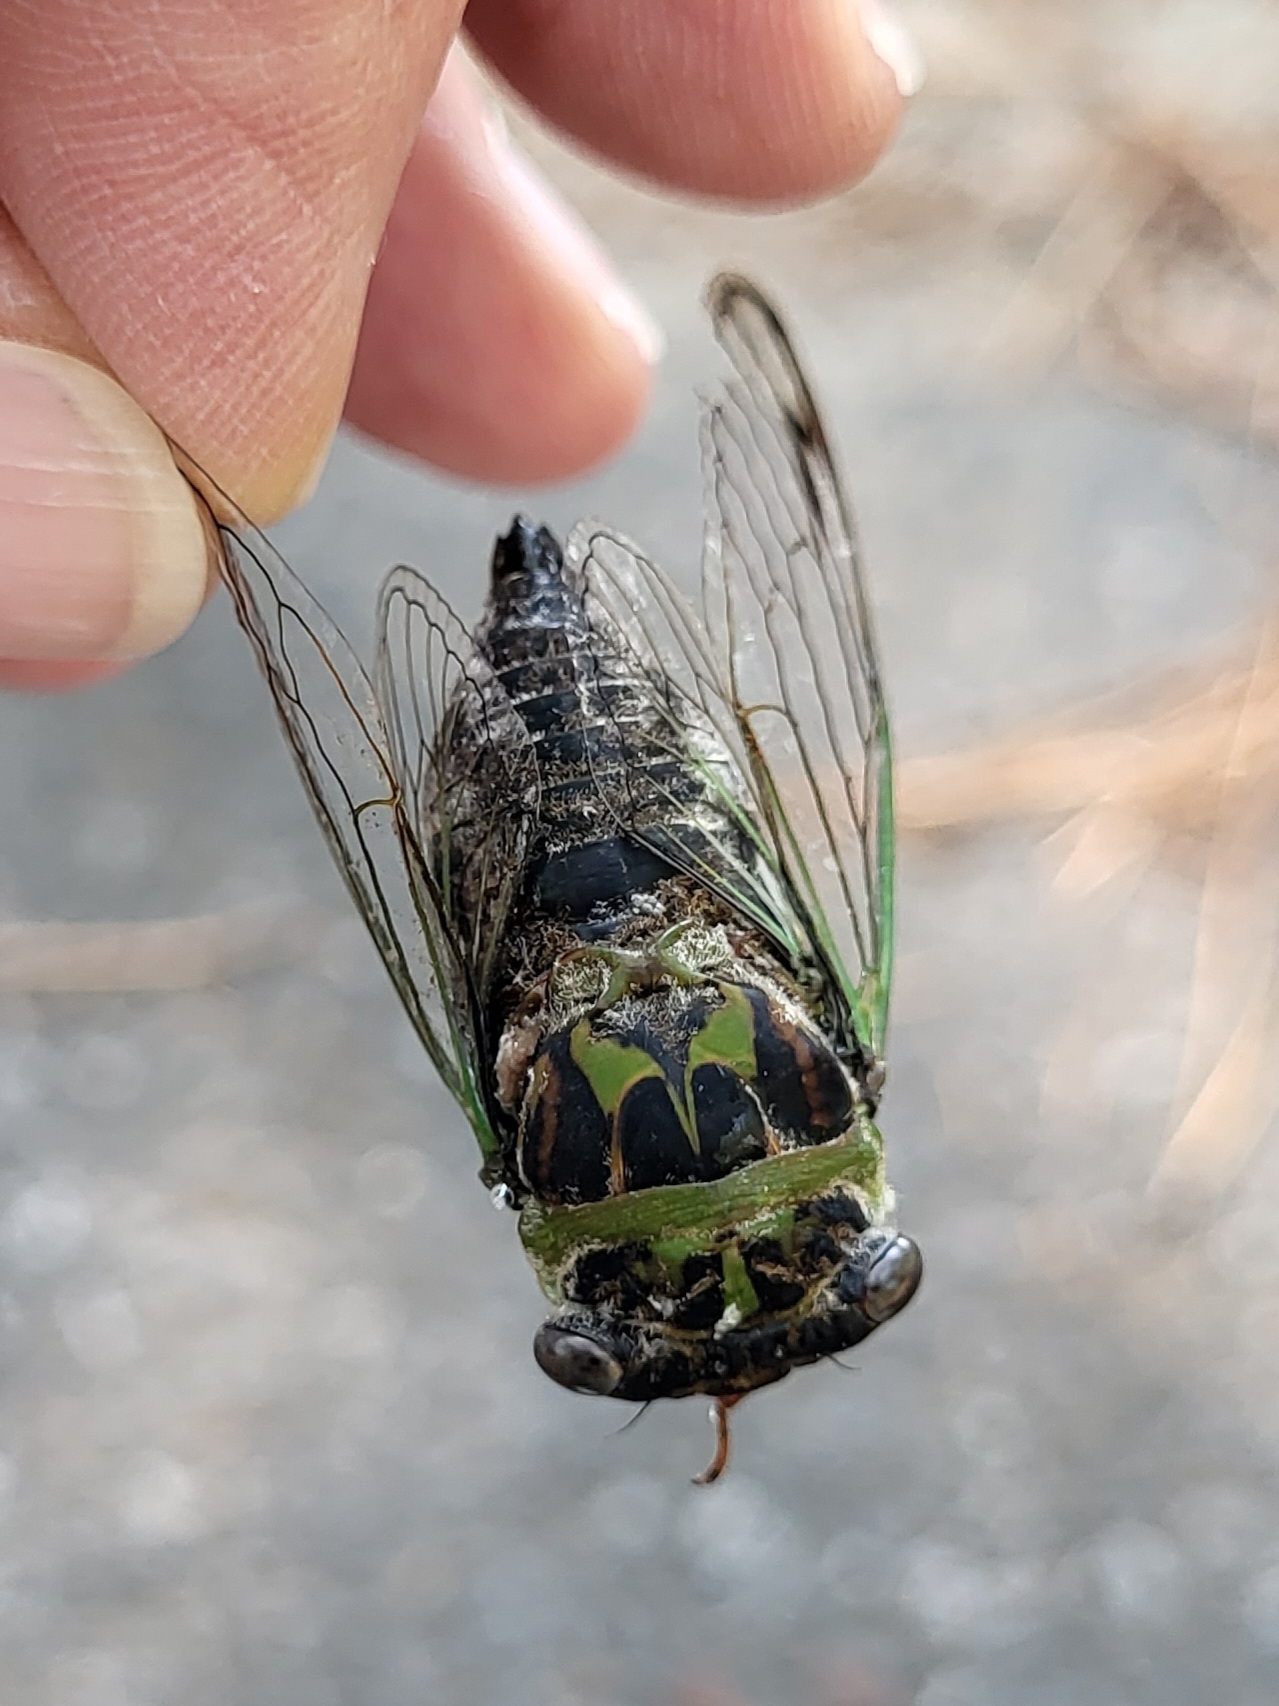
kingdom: Animalia
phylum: Arthropoda
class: Insecta
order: Hemiptera
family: Cicadidae
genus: Neotibicen
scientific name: Neotibicen davisi
